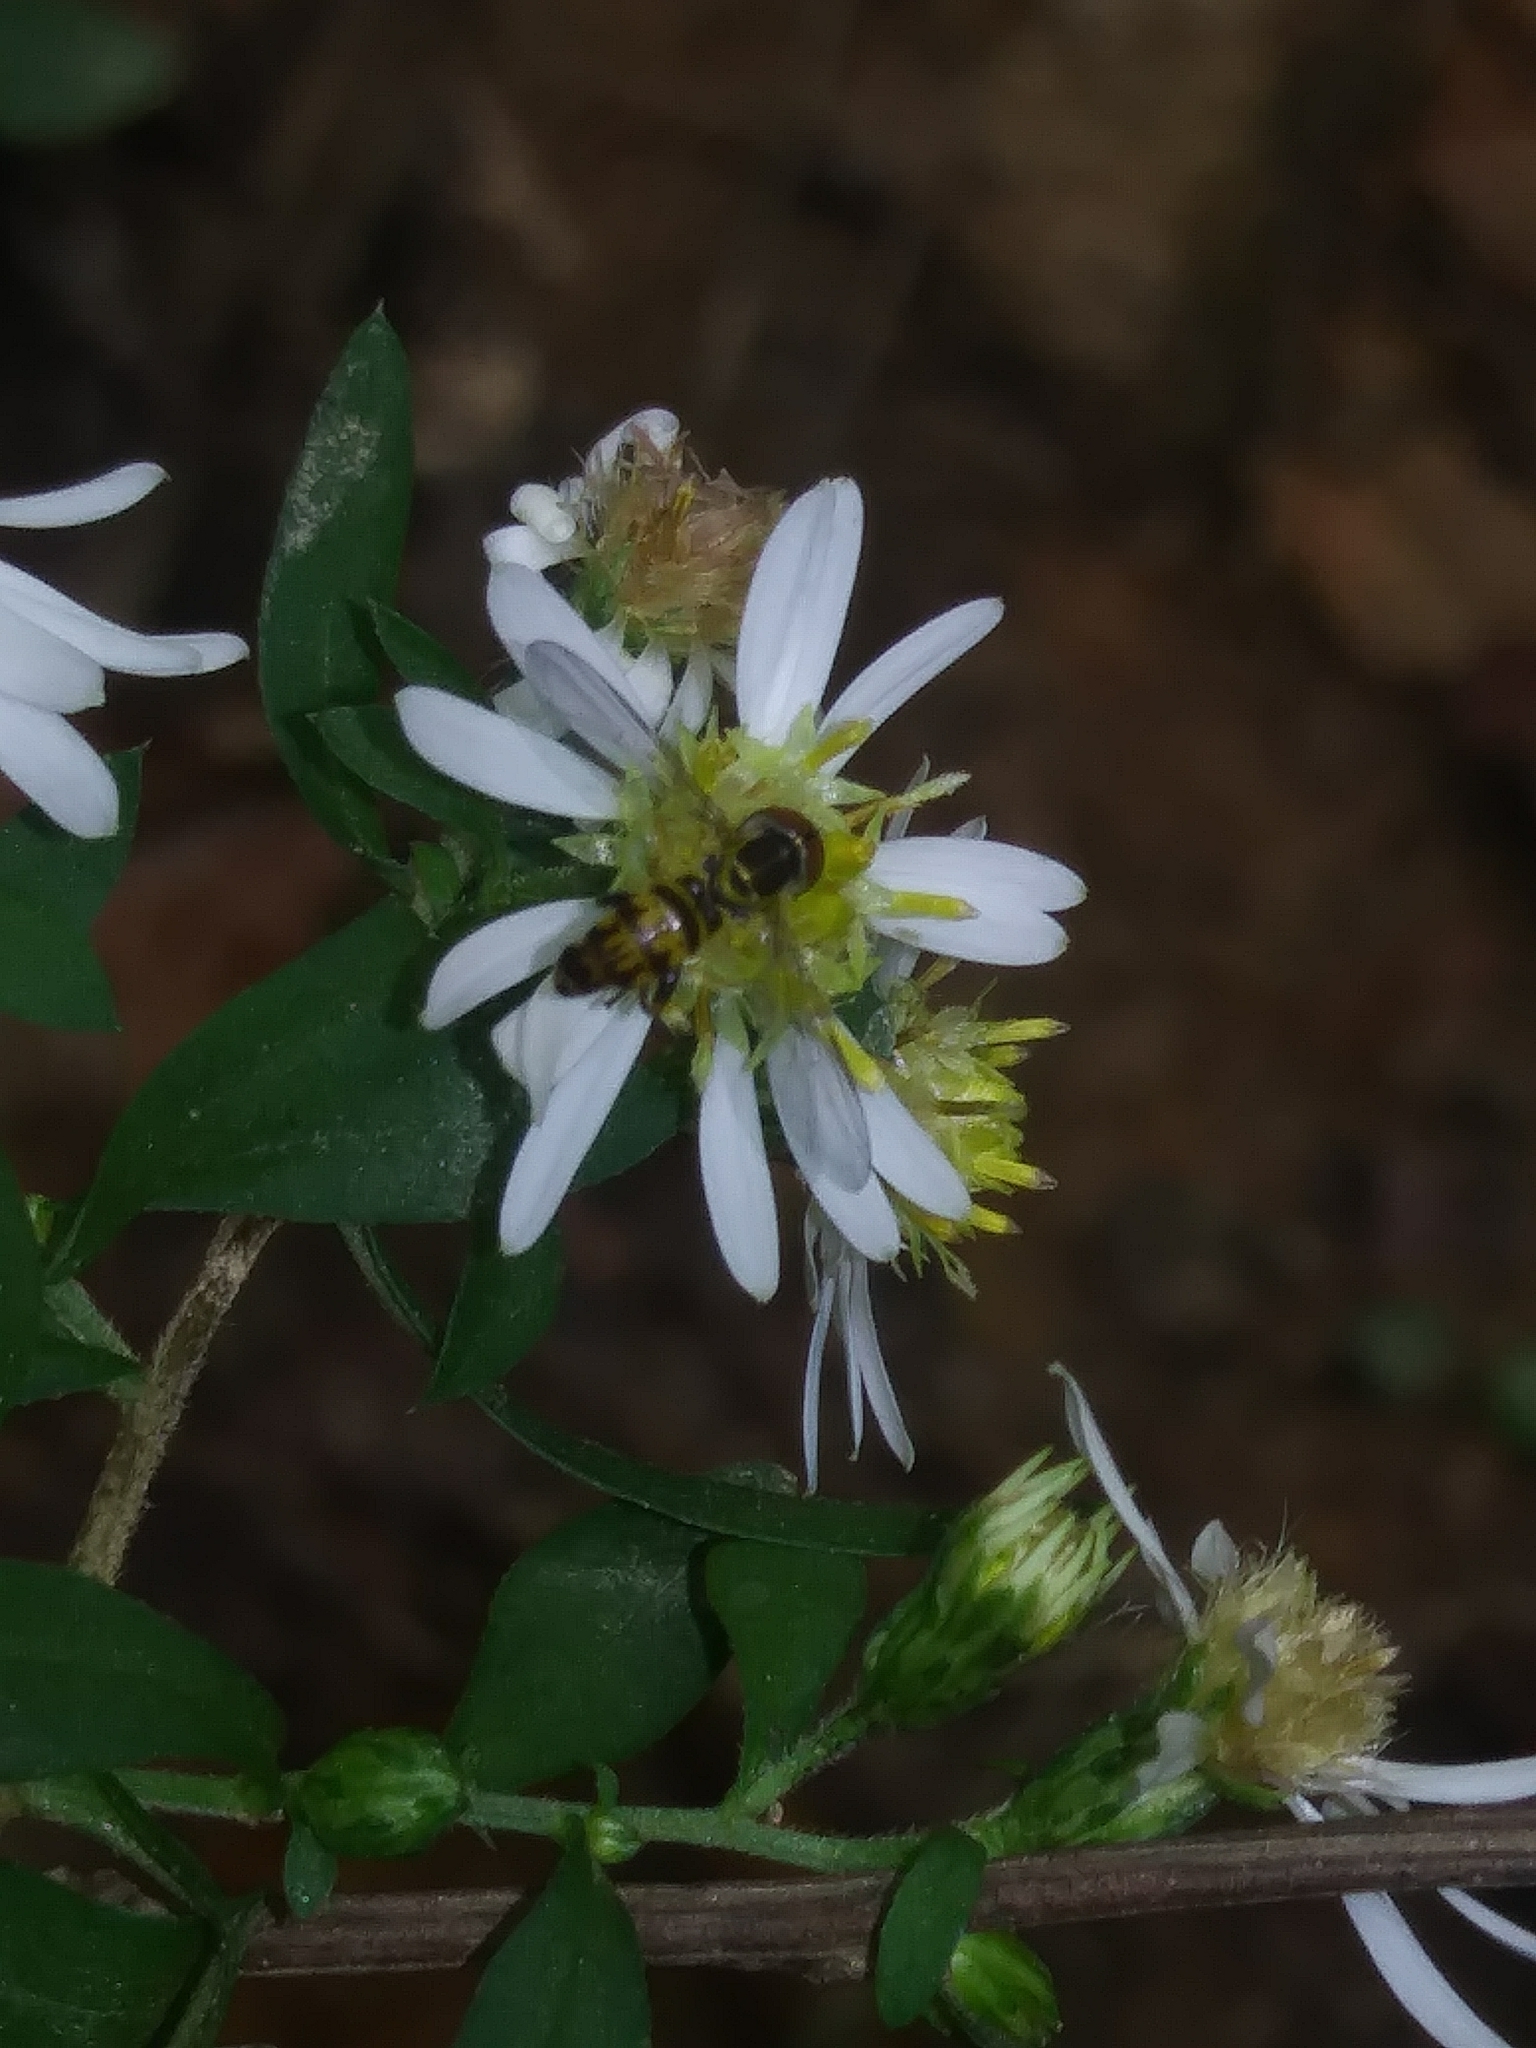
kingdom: Animalia
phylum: Arthropoda
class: Insecta
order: Diptera
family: Syrphidae
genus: Toxomerus
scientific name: Toxomerus geminatus
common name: Eastern calligrapher
